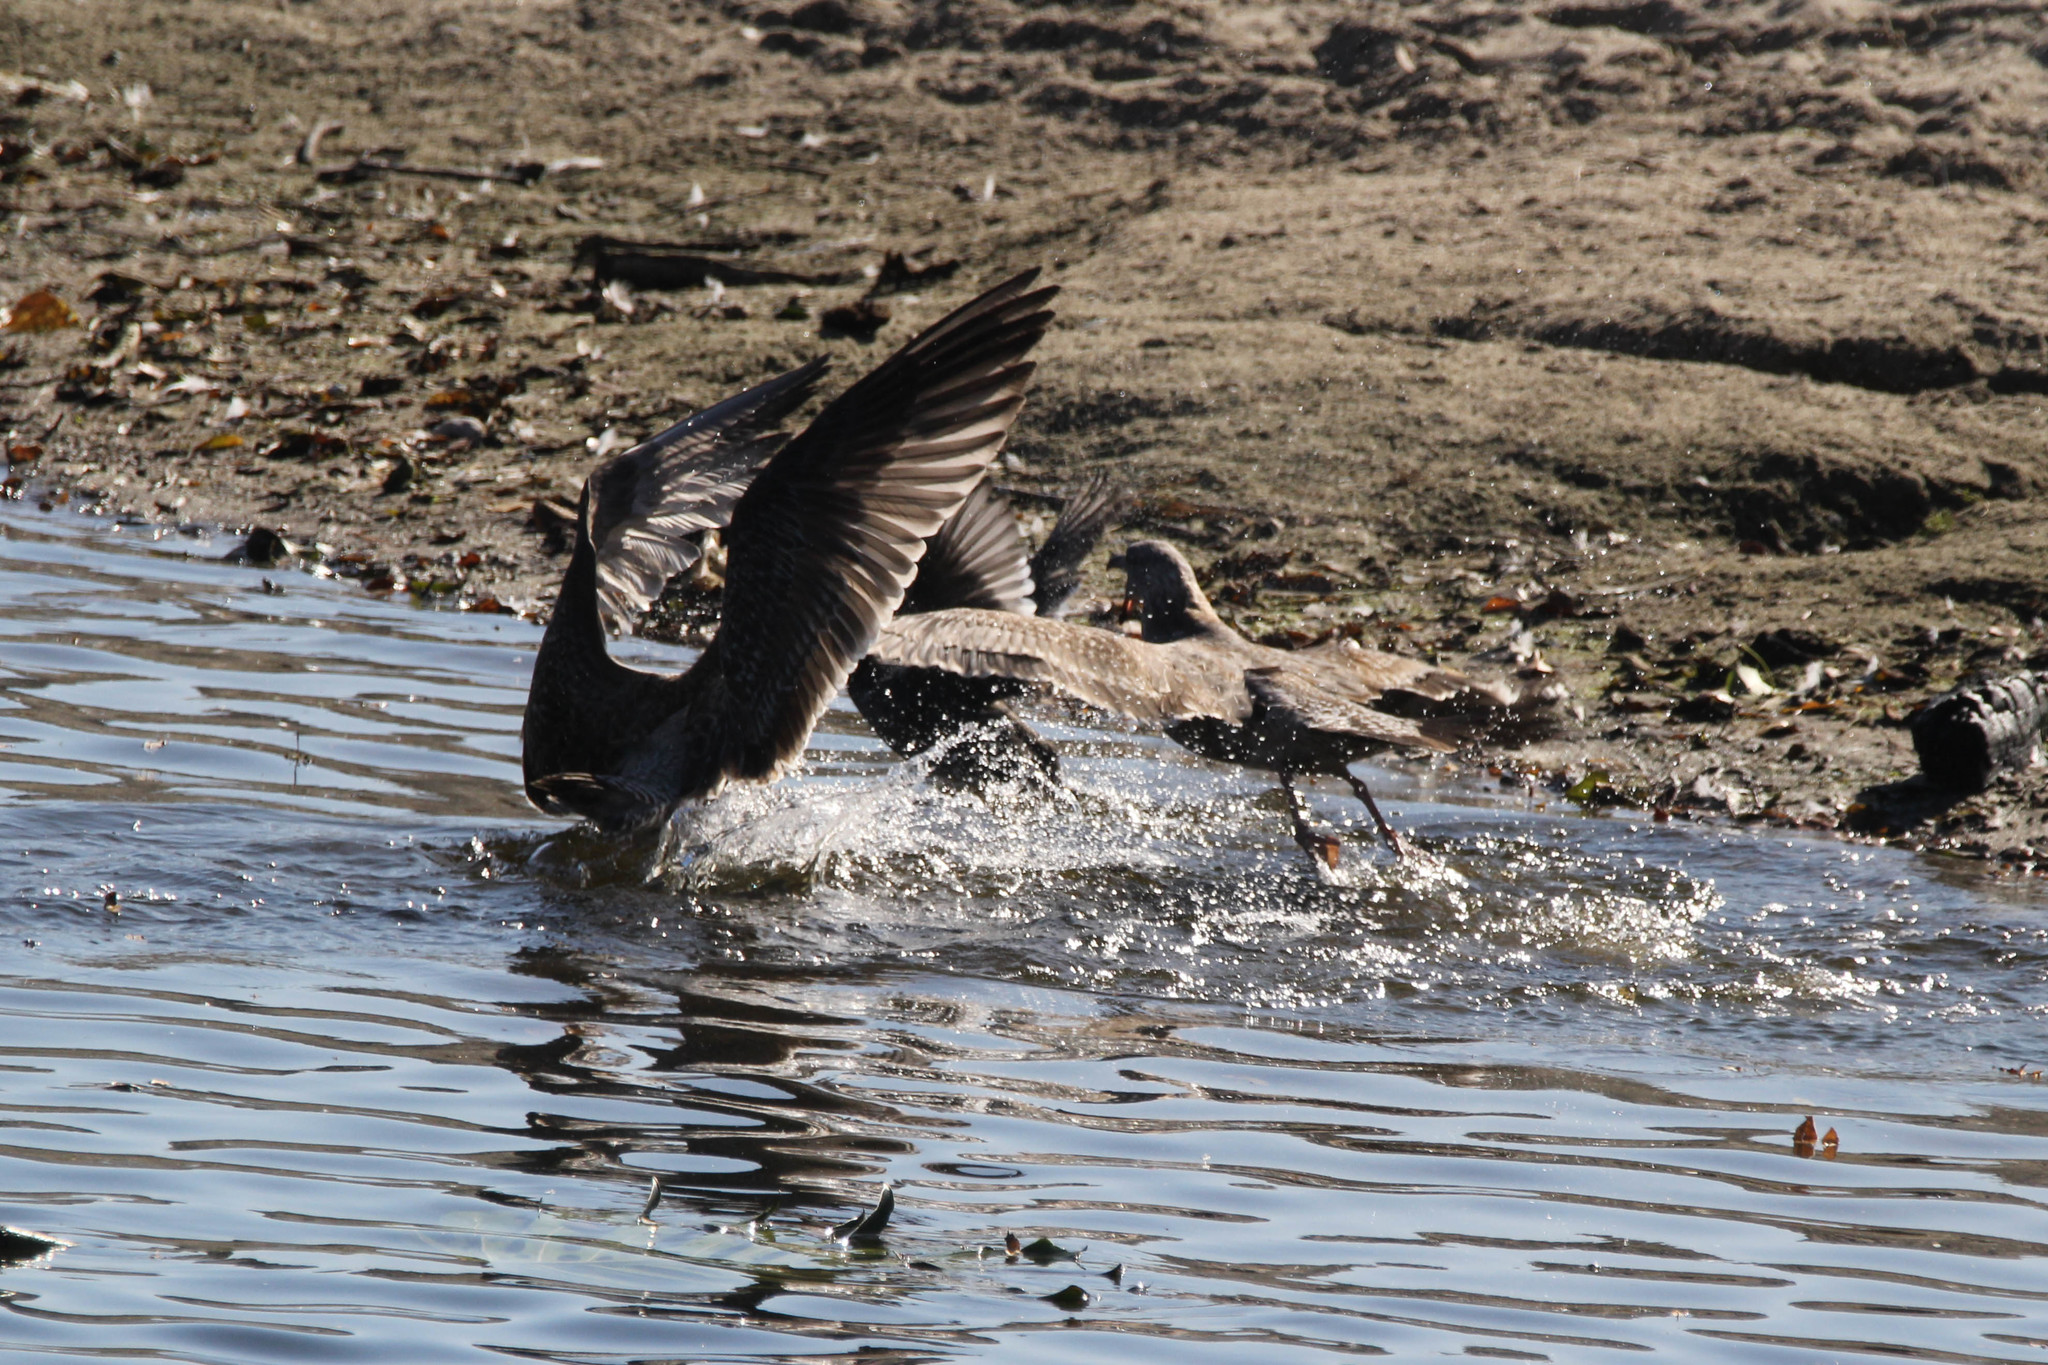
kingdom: Animalia
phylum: Chordata
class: Aves
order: Gruiformes
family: Rallidae
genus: Fulica
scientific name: Fulica americana
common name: American coot
